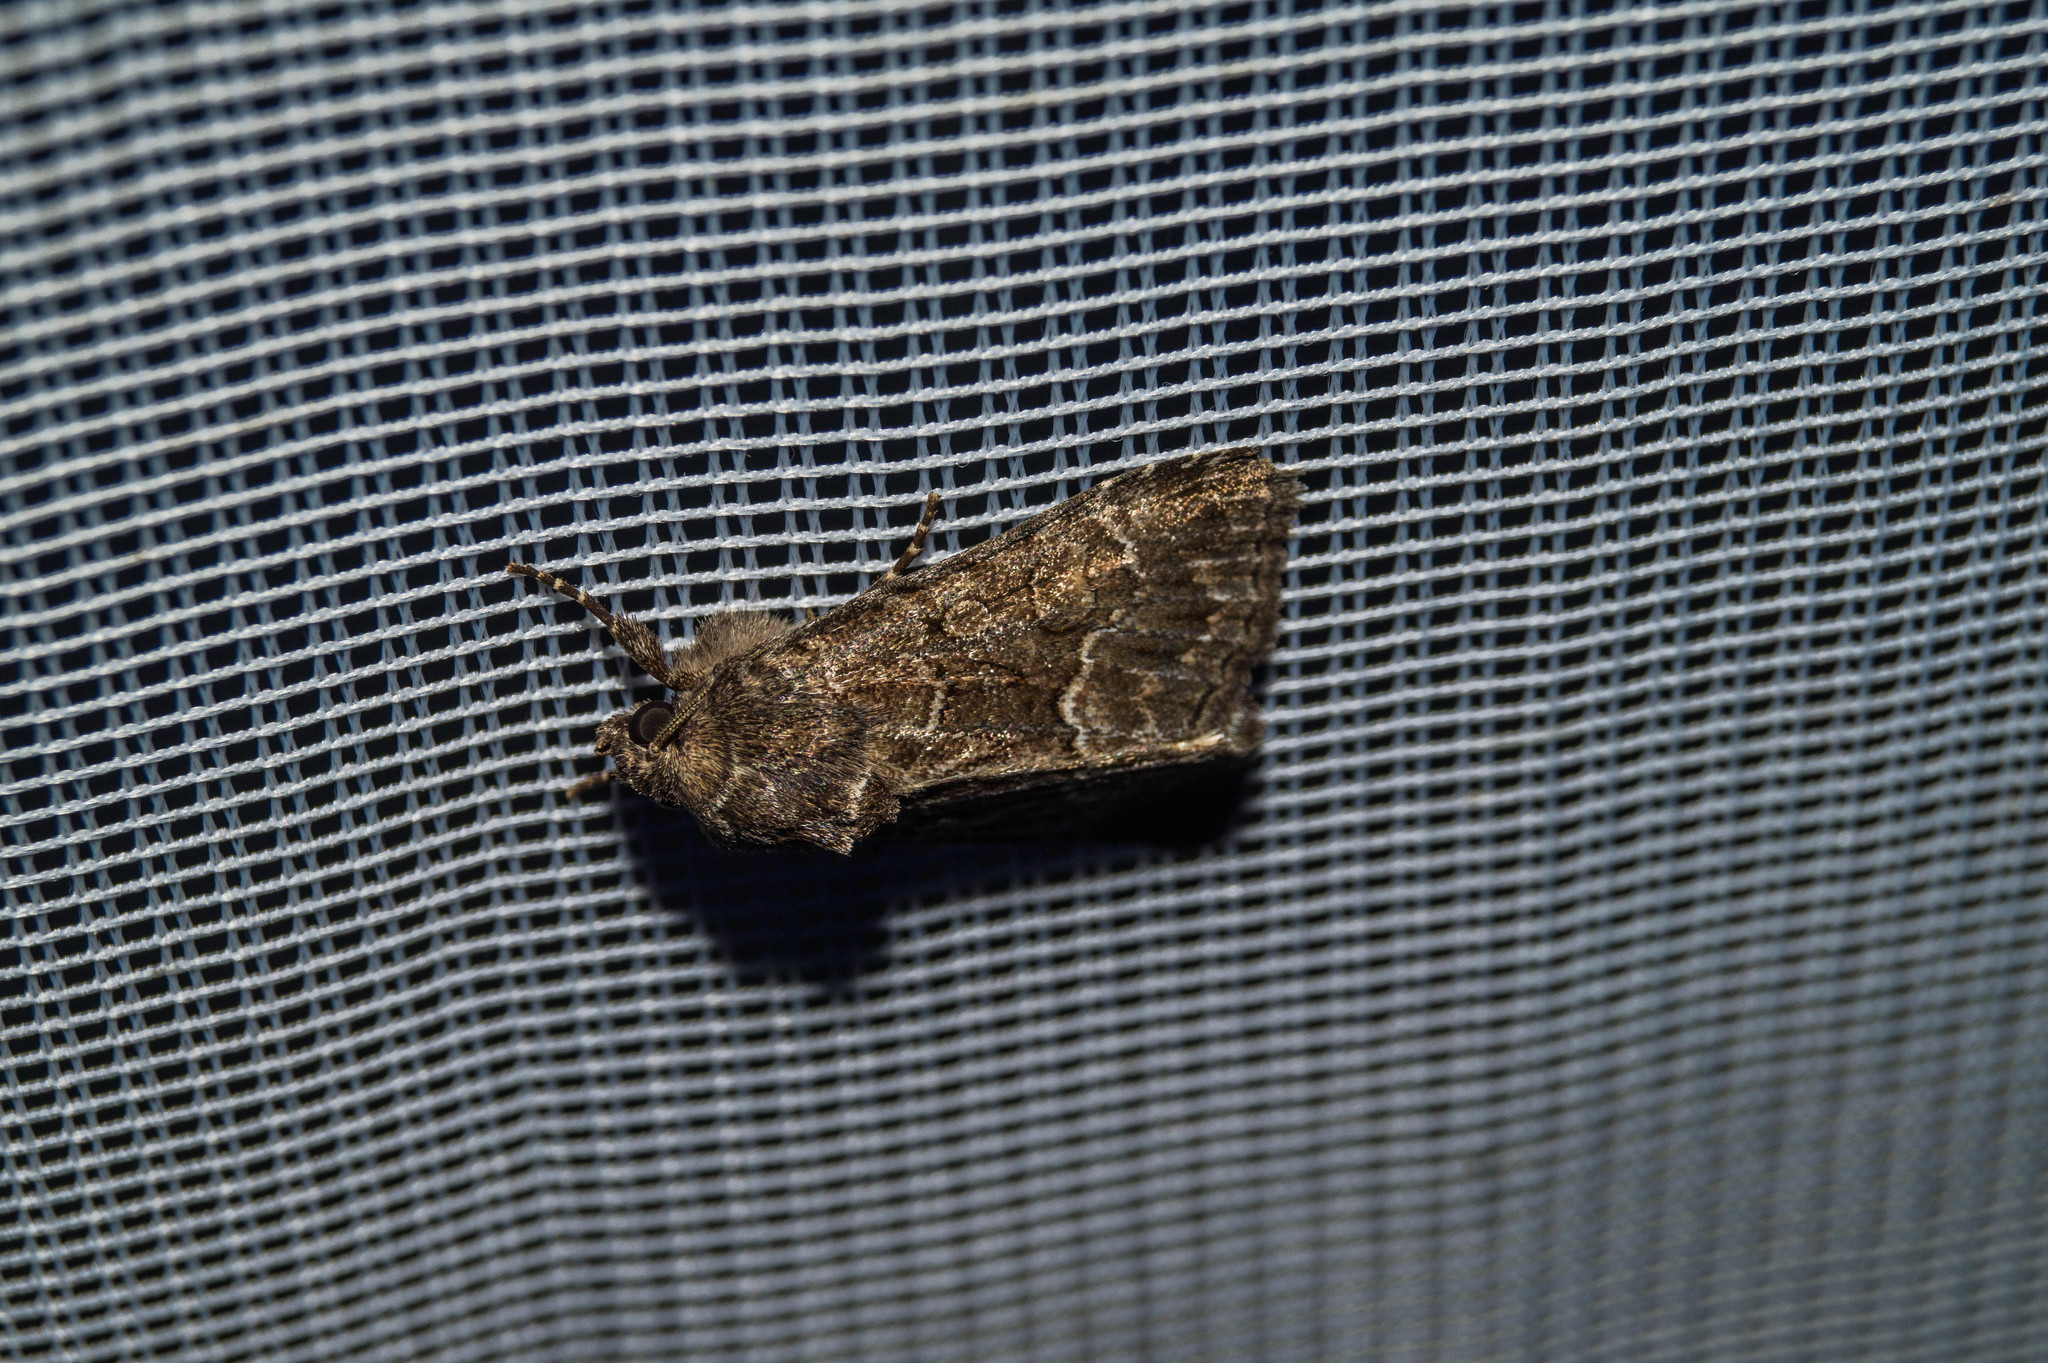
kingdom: Animalia
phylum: Arthropoda
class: Insecta
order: Lepidoptera
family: Noctuidae
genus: Thalpophila
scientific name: Thalpophila matura
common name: Straw underwing
